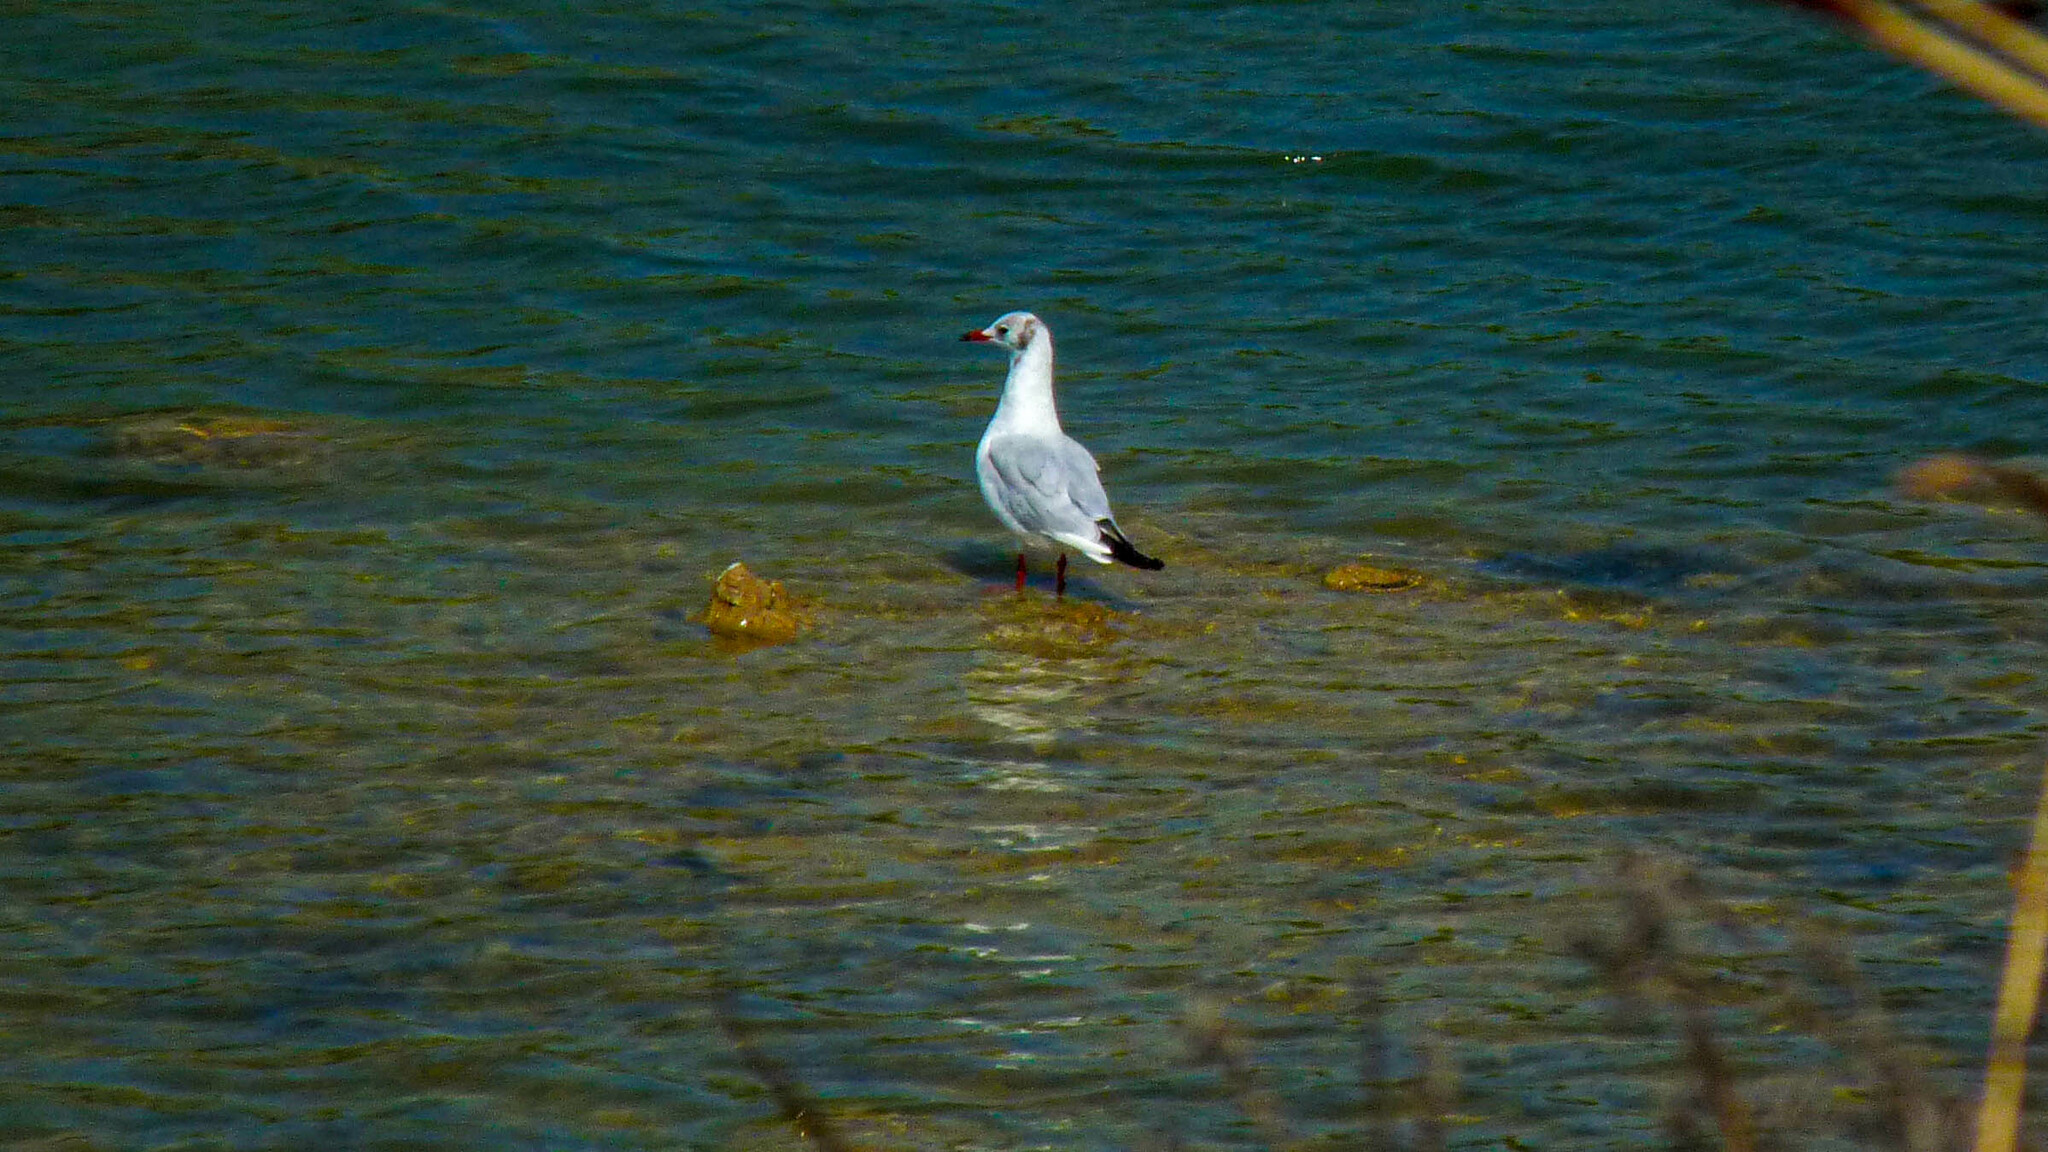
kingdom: Animalia
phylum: Chordata
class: Aves
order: Charadriiformes
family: Laridae
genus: Chroicocephalus
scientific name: Chroicocephalus ridibundus
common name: Black-headed gull
